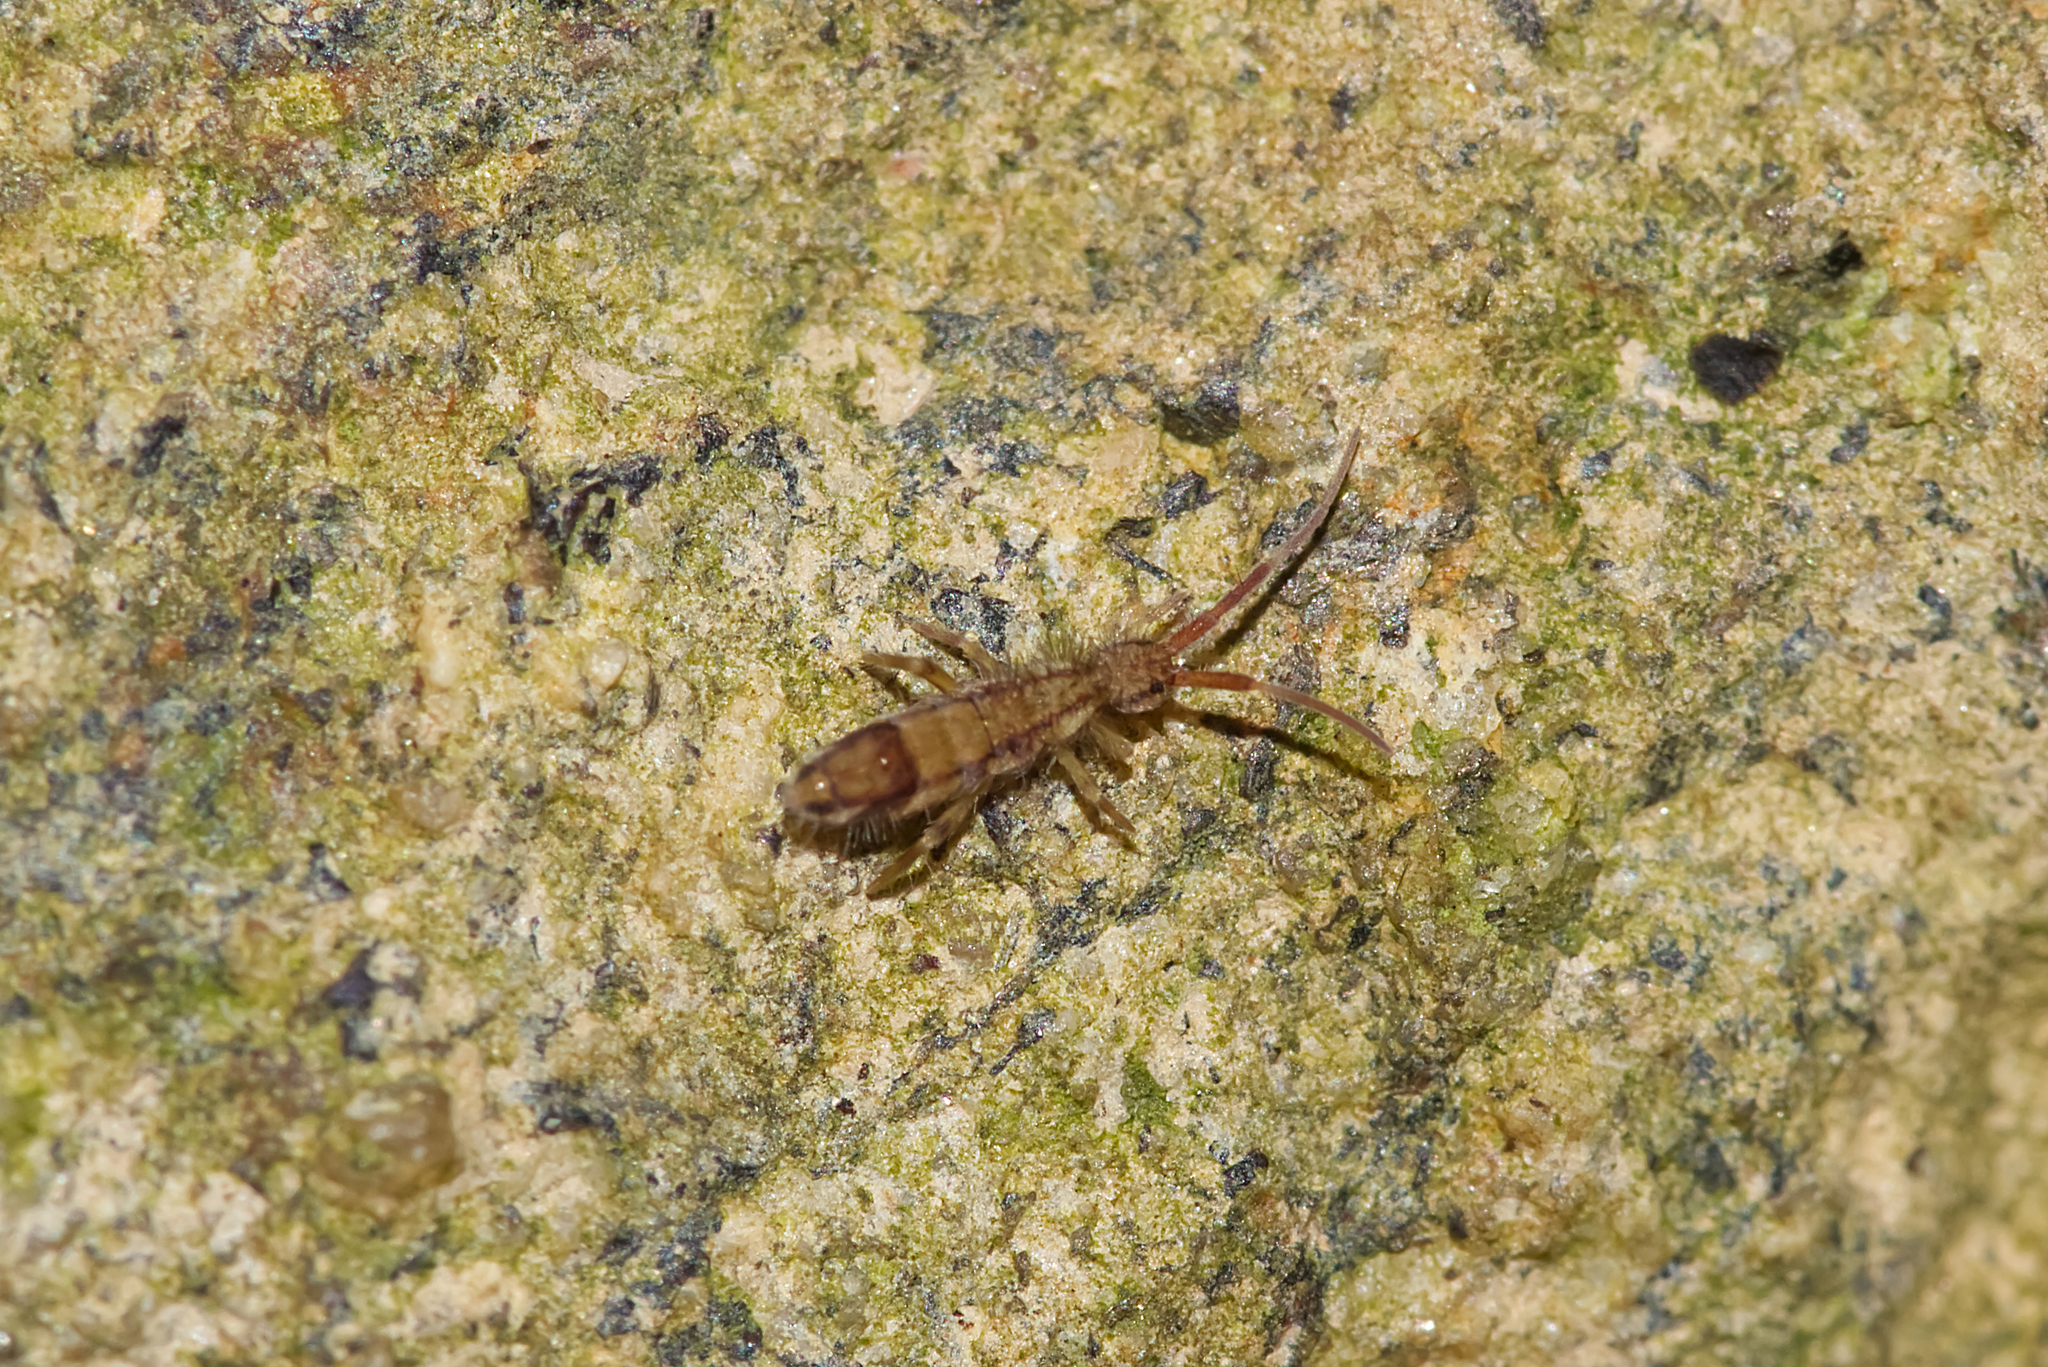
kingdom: Animalia
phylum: Arthropoda
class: Collembola
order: Entomobryomorpha
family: Orchesellidae
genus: Orchesella
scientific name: Orchesella
